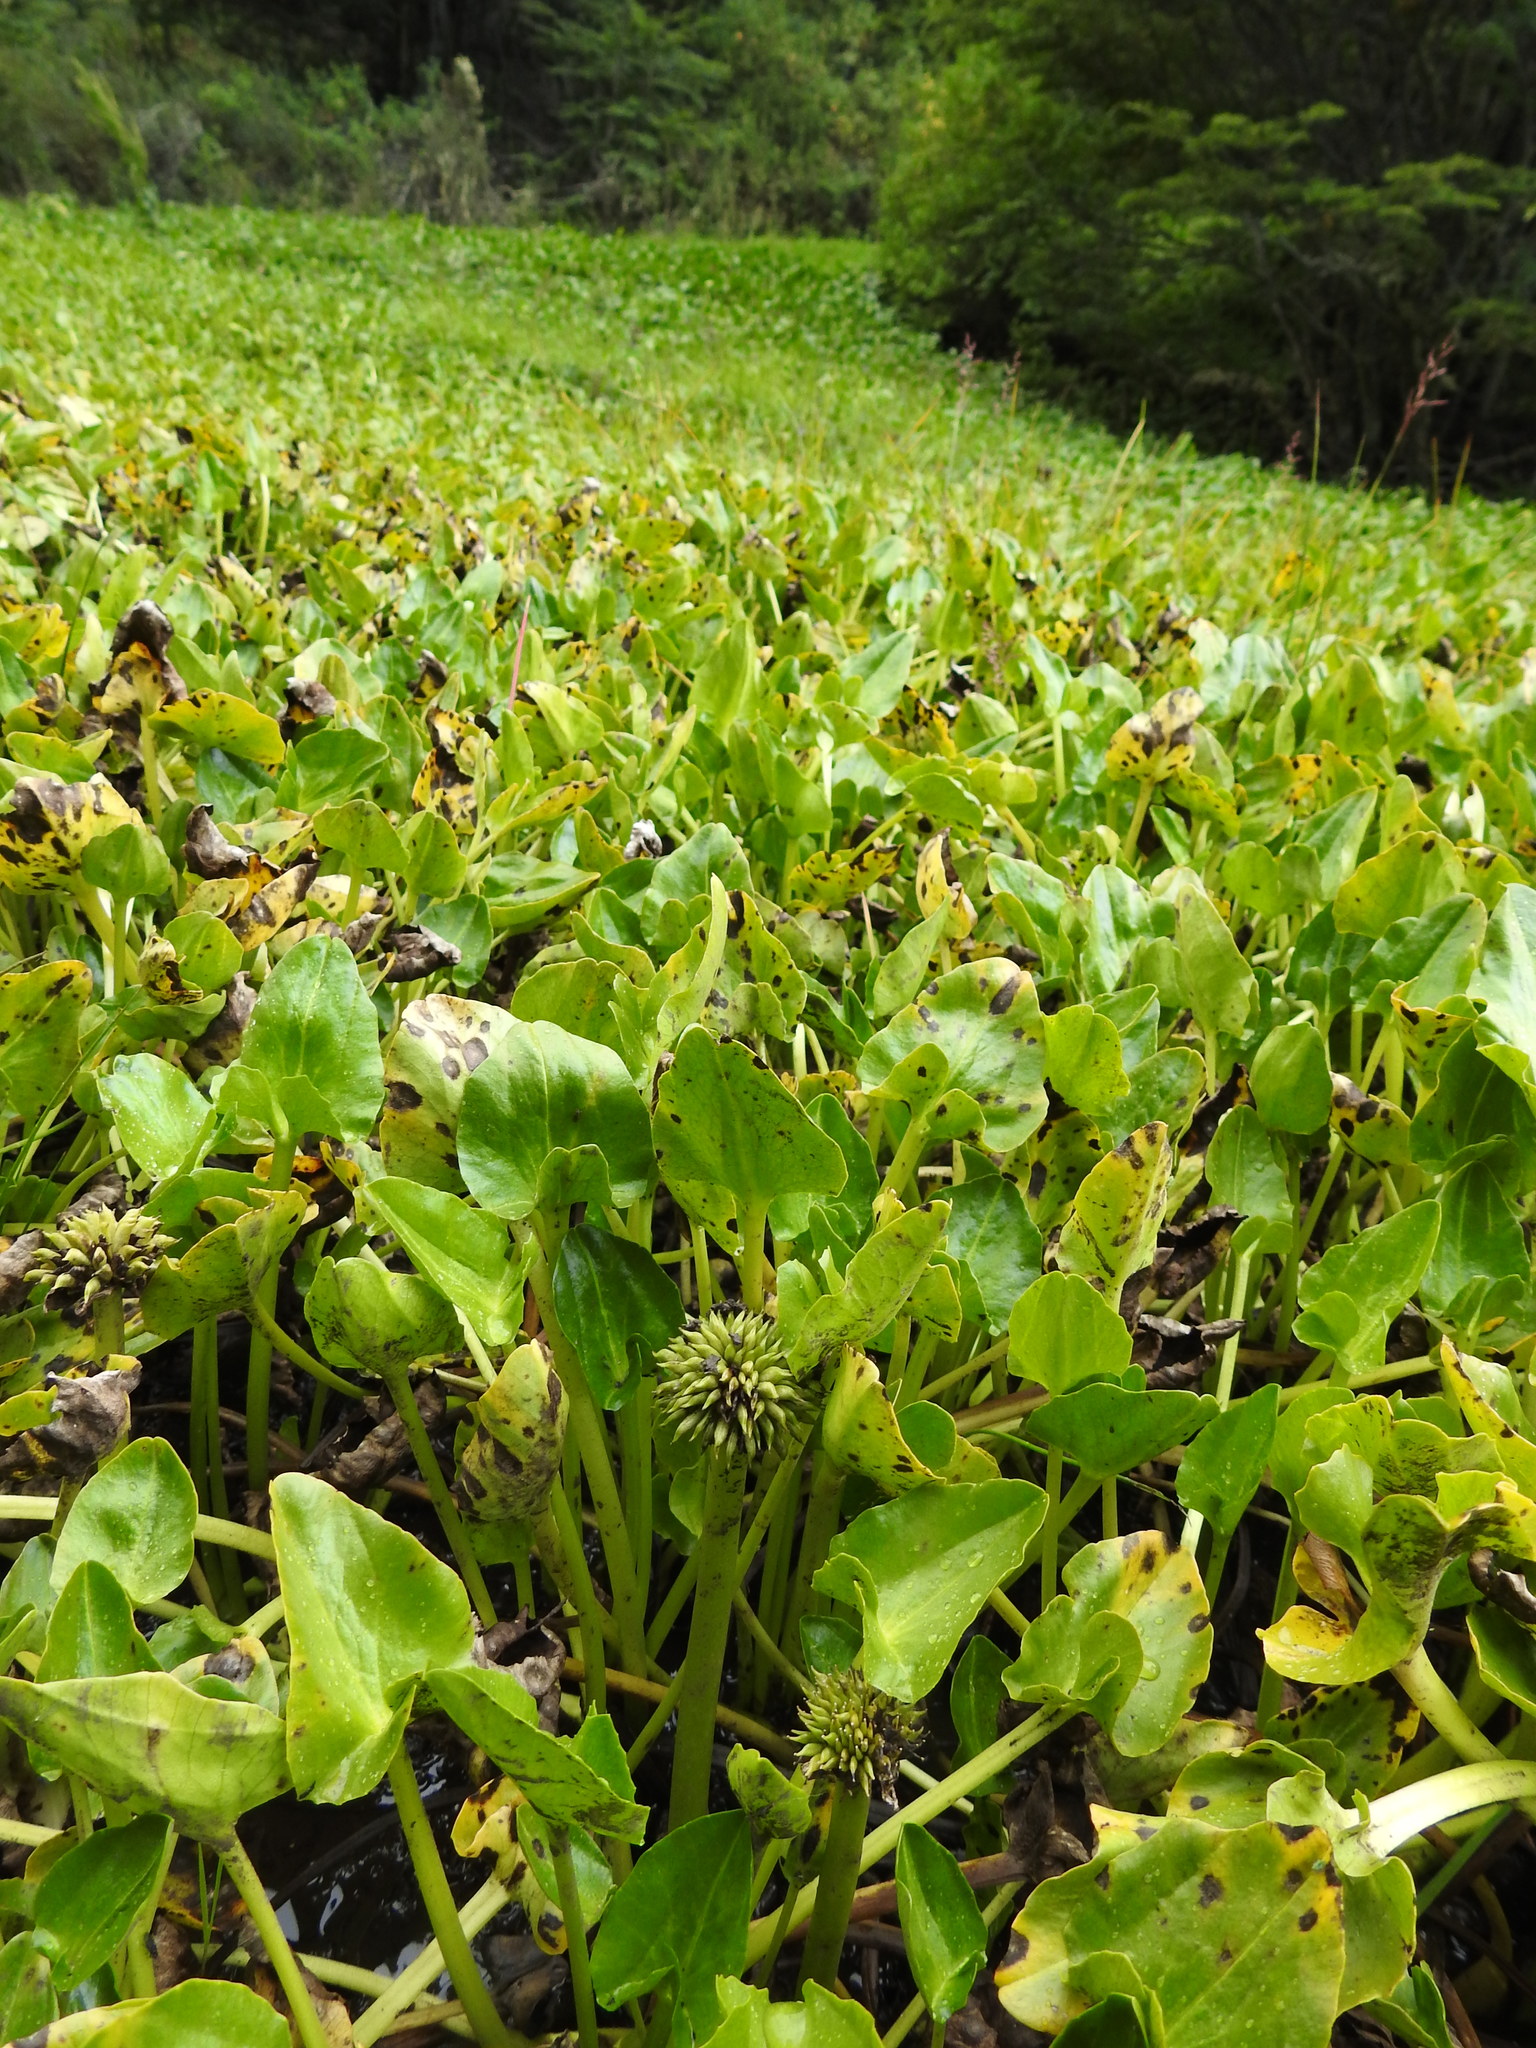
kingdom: Plantae
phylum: Tracheophyta
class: Magnoliopsida
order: Ranunculales
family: Ranunculaceae
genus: Caltha
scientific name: Caltha sagittata
